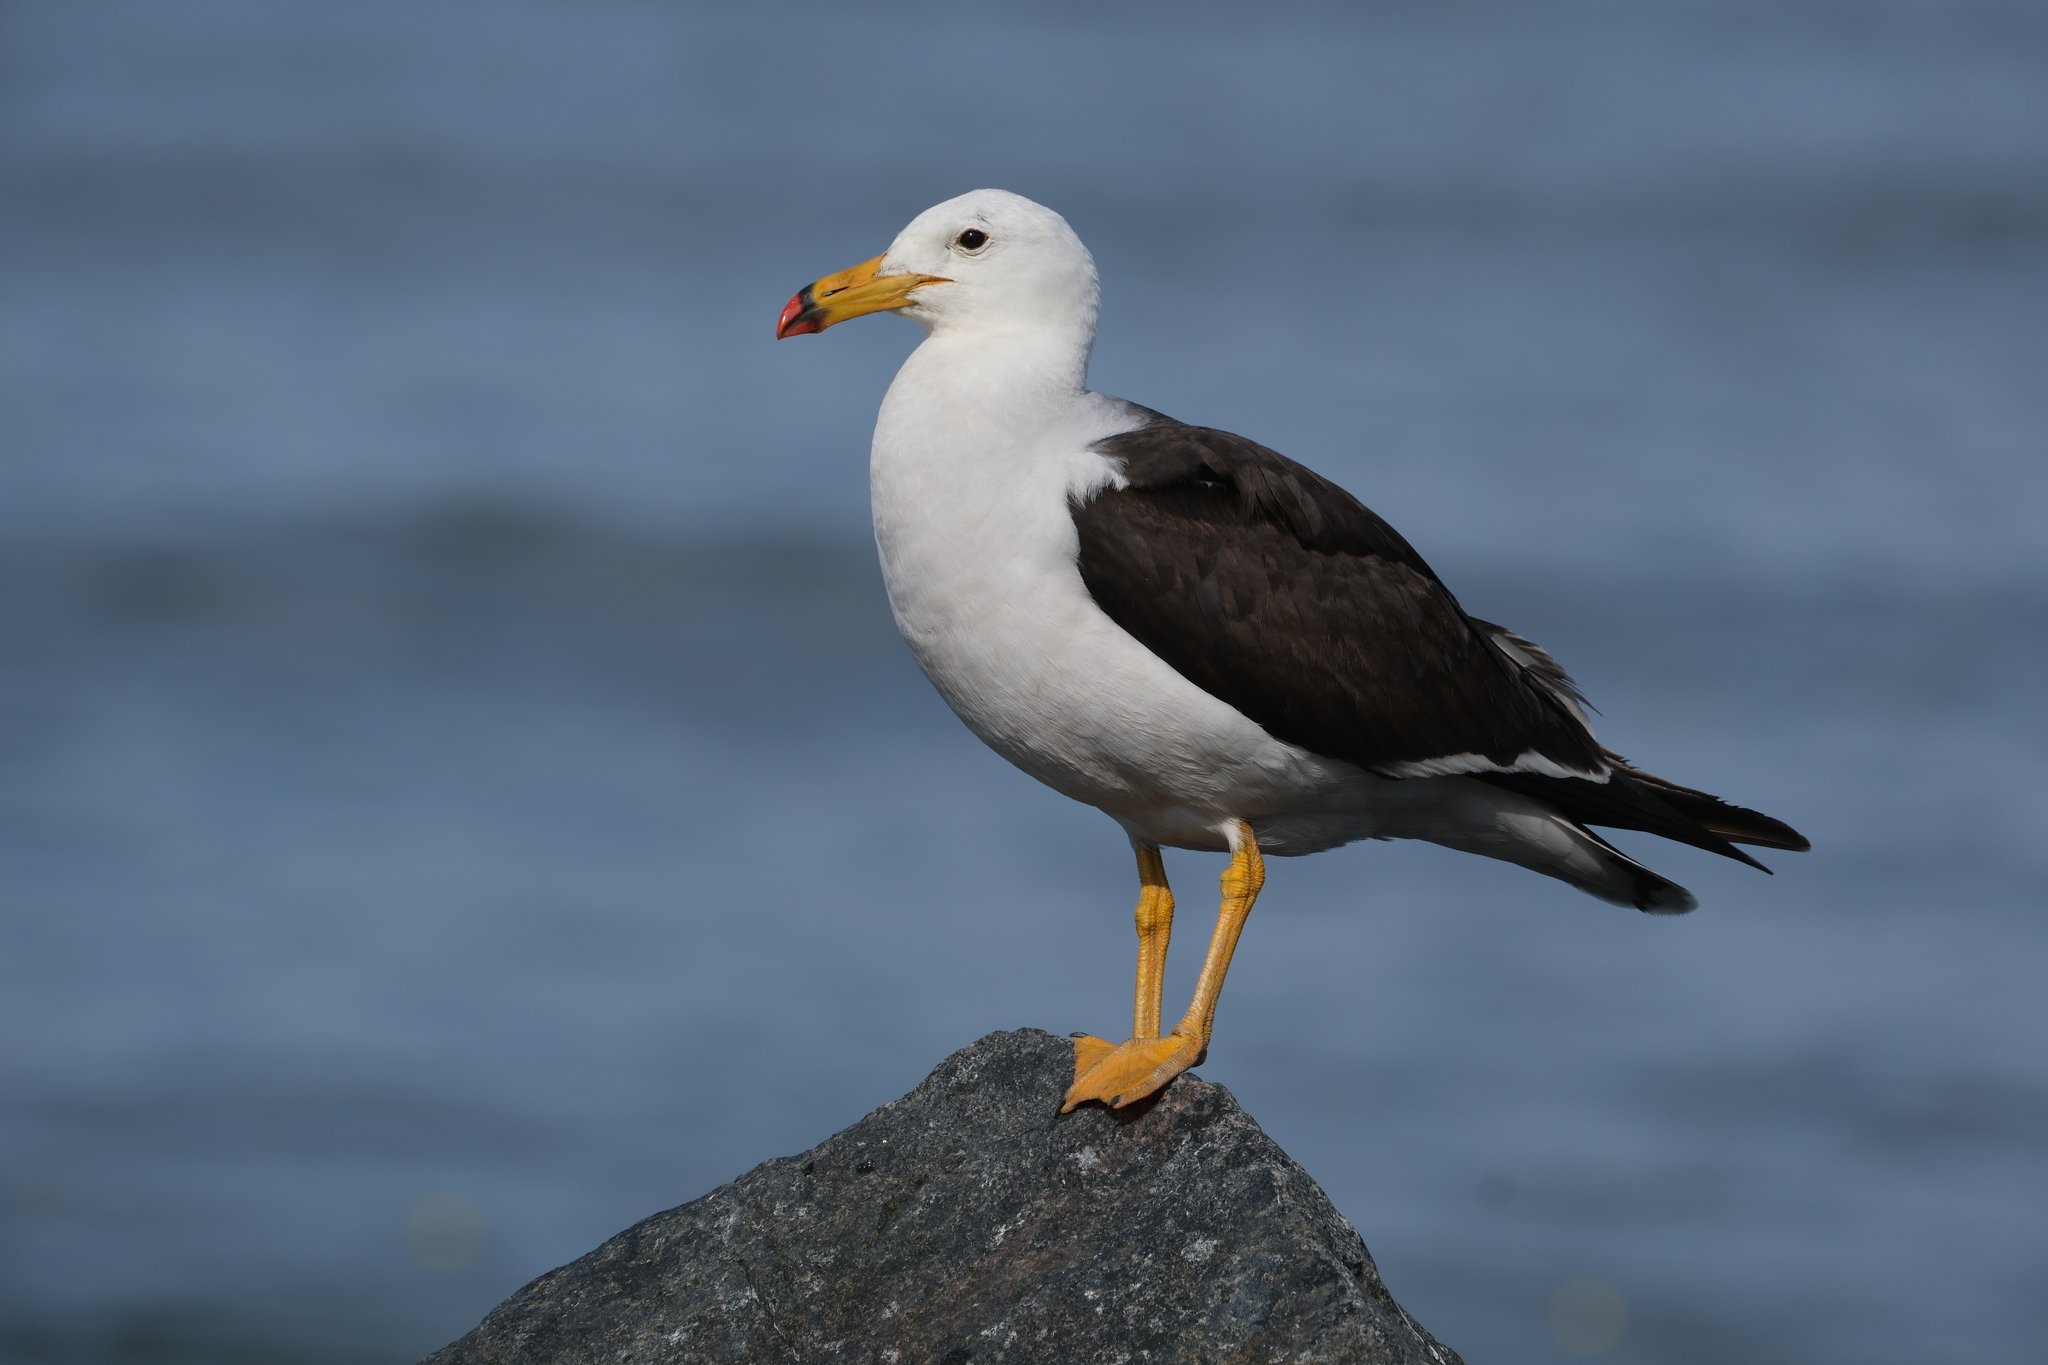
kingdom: Animalia
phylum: Chordata
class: Aves
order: Charadriiformes
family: Laridae
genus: Larus
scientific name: Larus belcheri
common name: Belcher's gull
